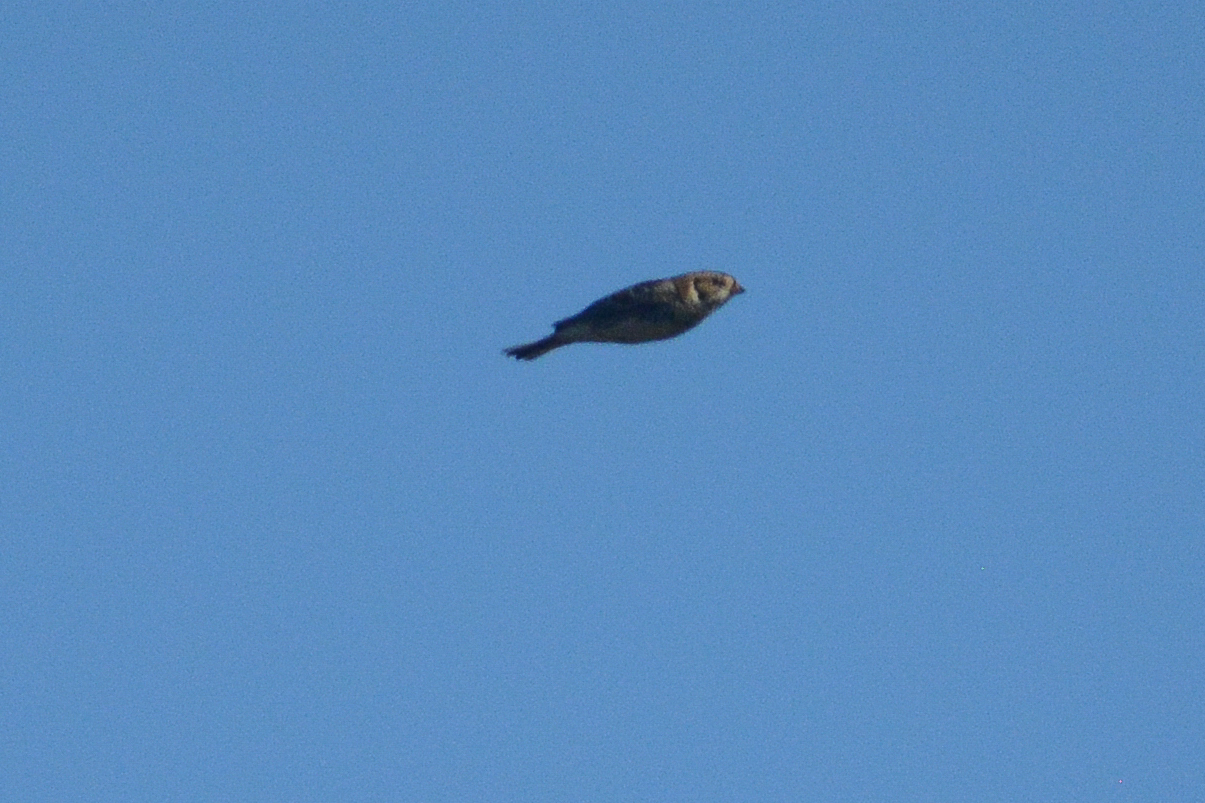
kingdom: Animalia
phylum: Chordata
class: Aves
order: Passeriformes
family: Calcariidae
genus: Calcarius
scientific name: Calcarius lapponicus
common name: Lapland longspur
